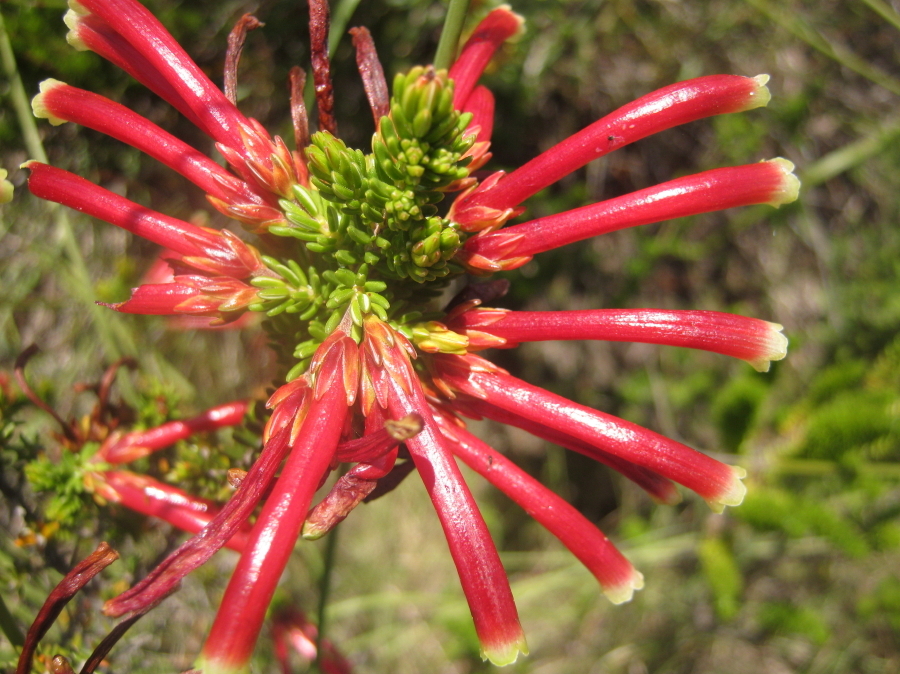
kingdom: Plantae
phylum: Tracheophyta
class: Magnoliopsida
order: Ericales
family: Ericaceae
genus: Erica
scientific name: Erica discolor
